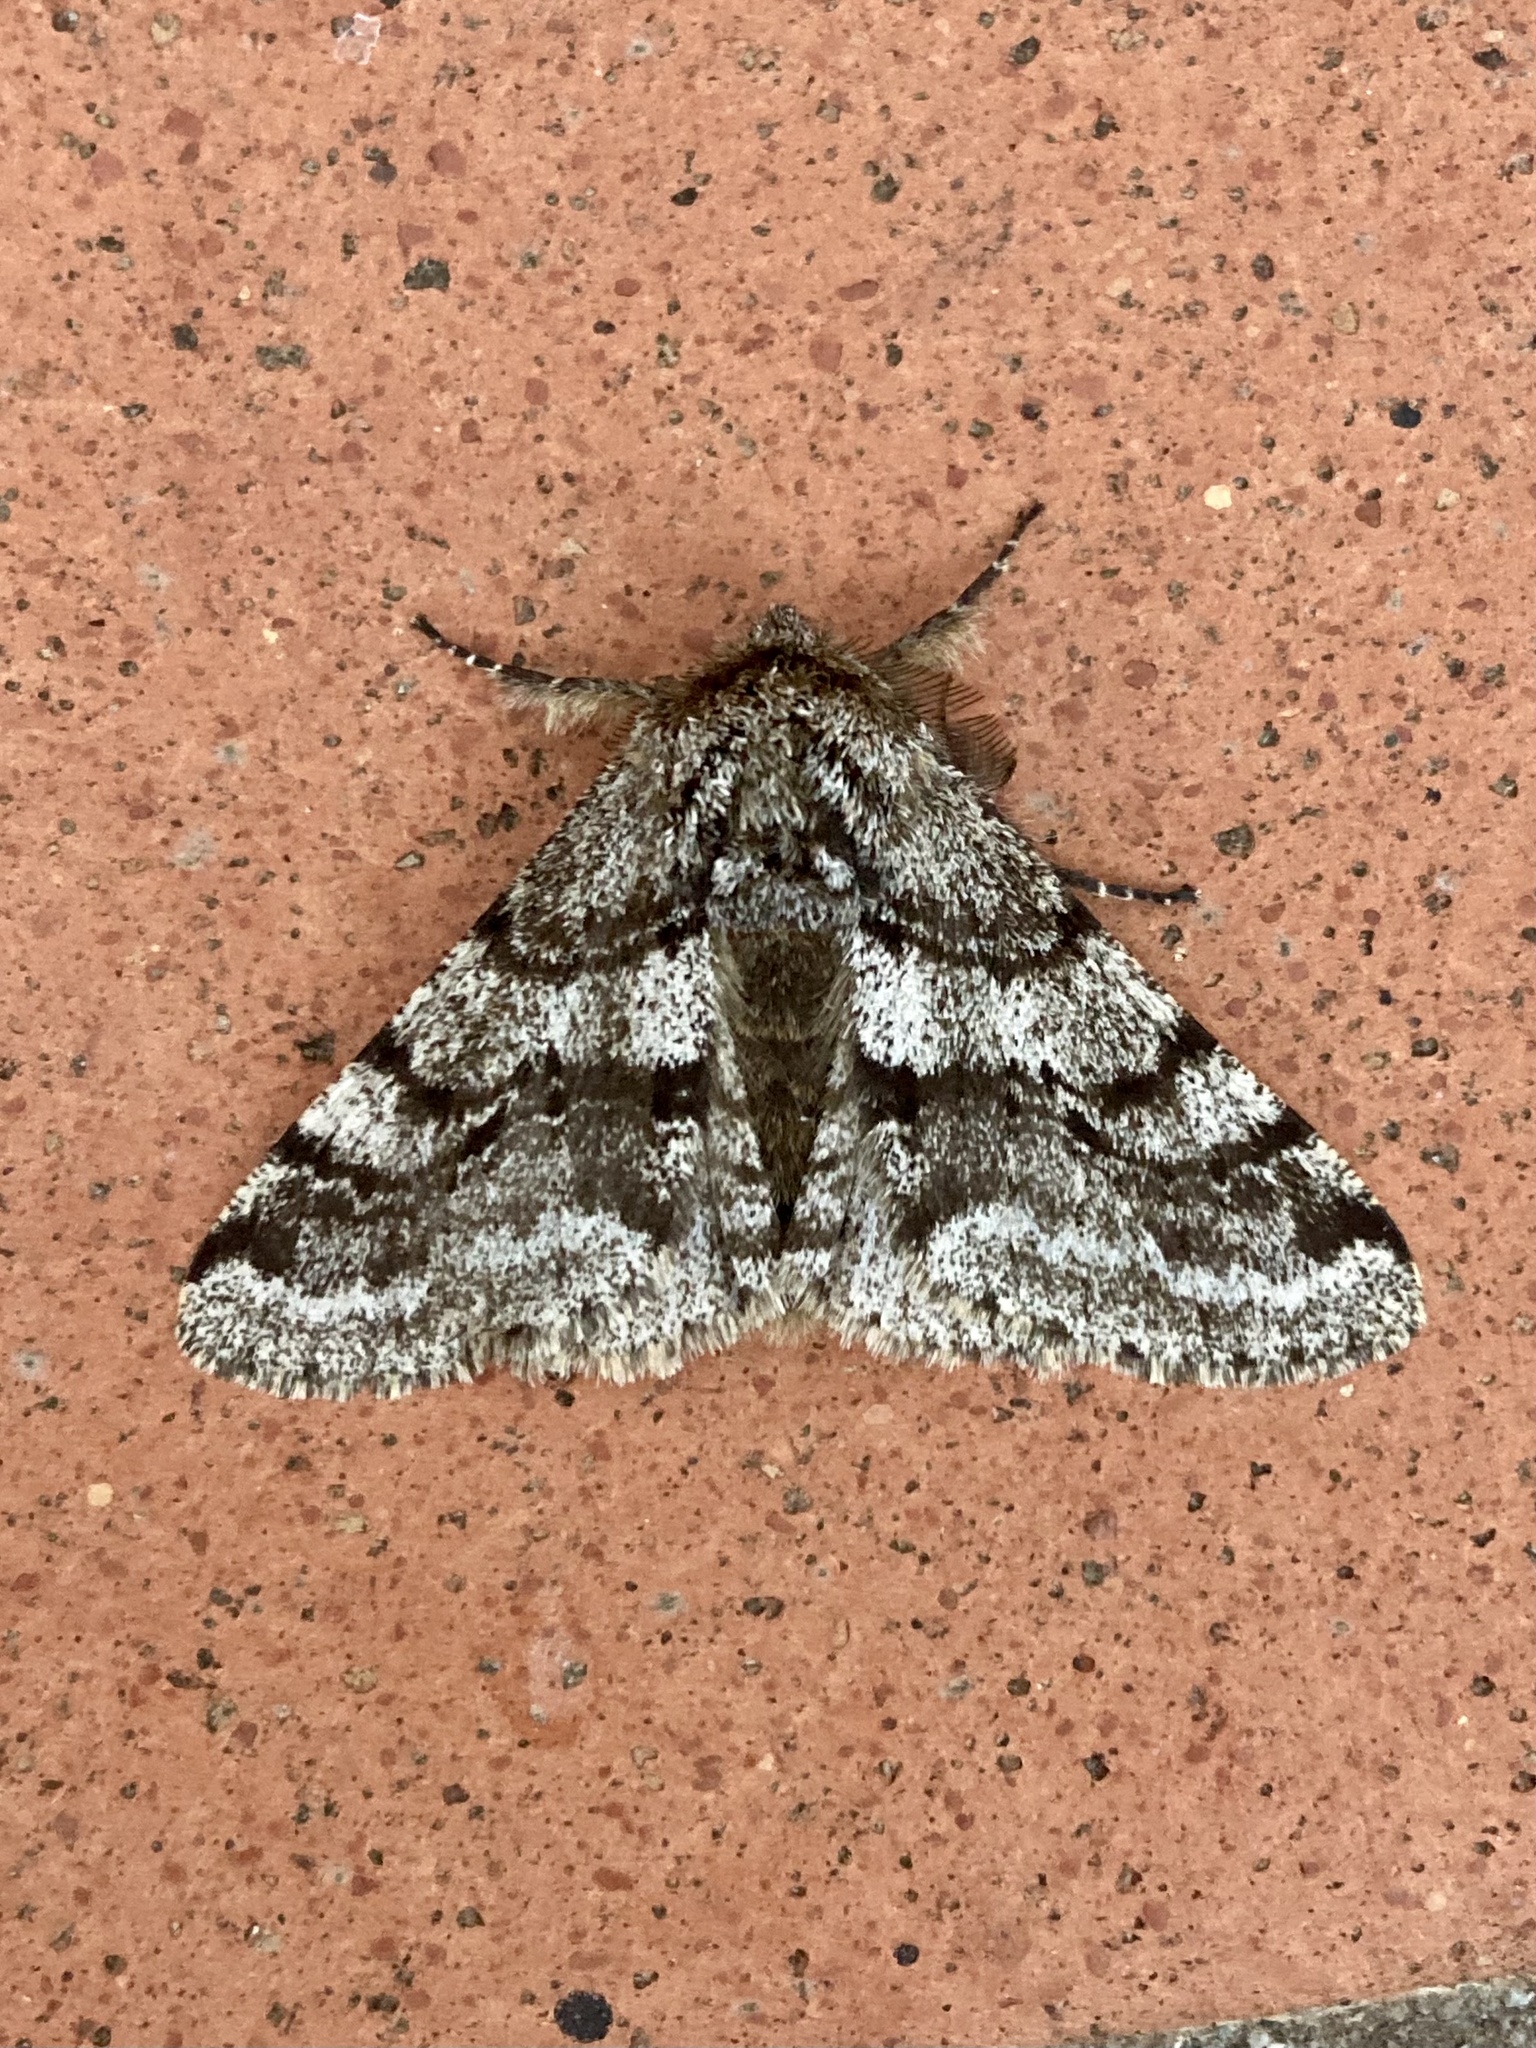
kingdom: Animalia
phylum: Arthropoda
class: Insecta
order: Lepidoptera
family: Geometridae
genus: Lycia
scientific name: Lycia hirtaria
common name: Brindled beauty
